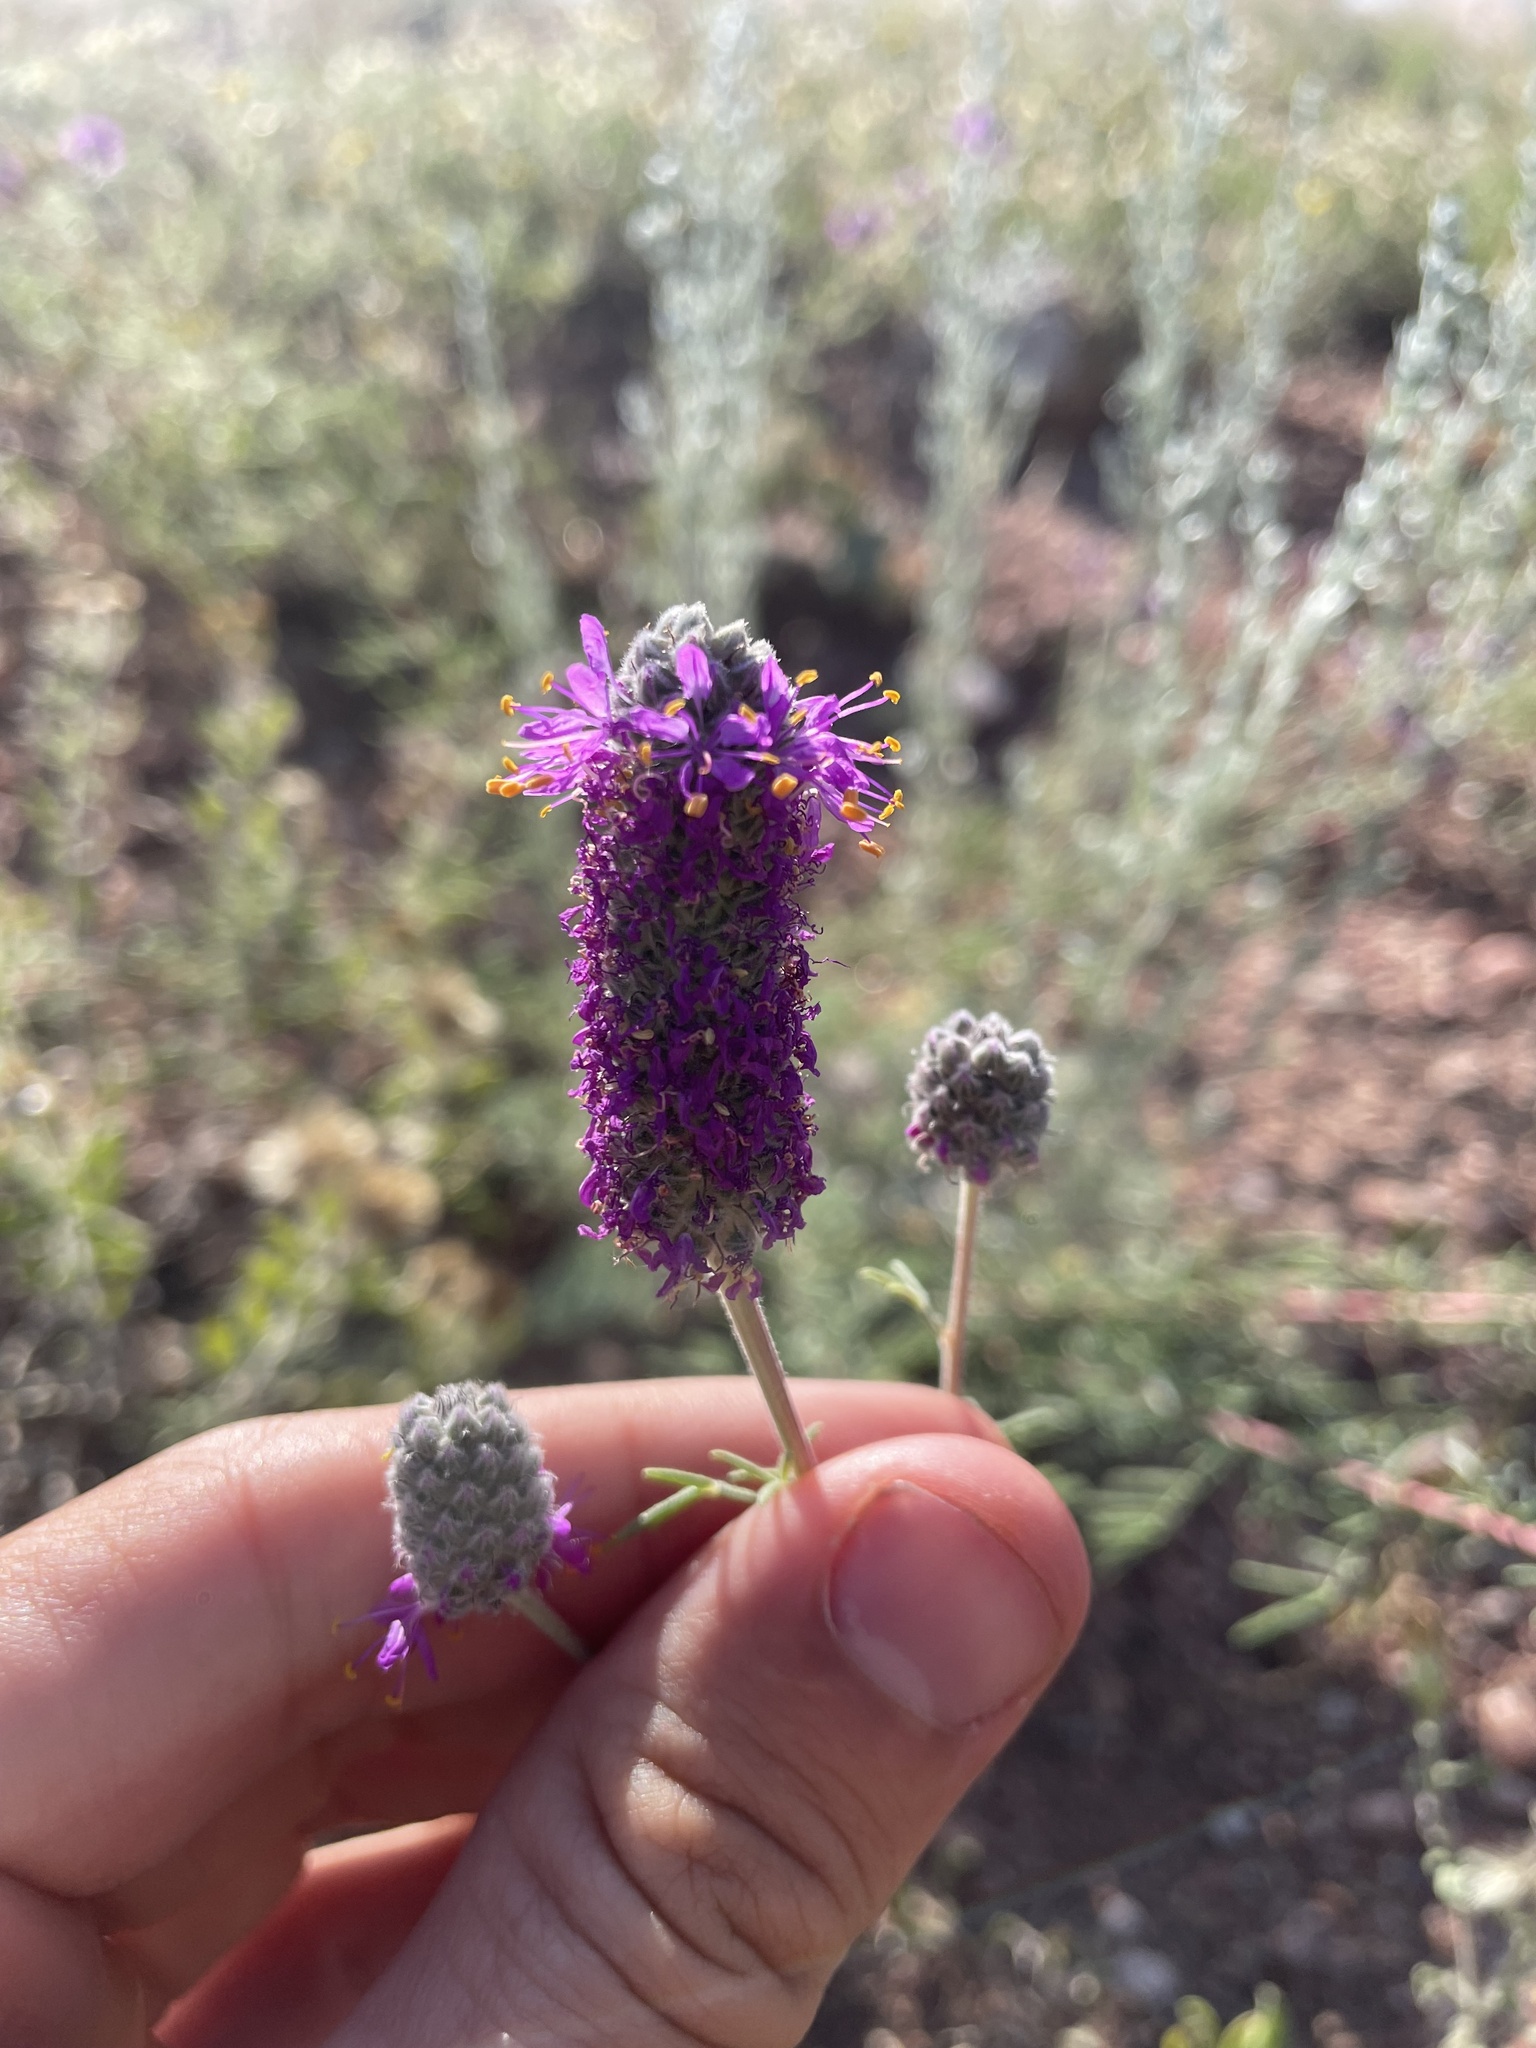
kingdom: Plantae
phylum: Tracheophyta
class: Magnoliopsida
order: Fabales
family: Fabaceae
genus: Dalea
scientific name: Dalea purpurea
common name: Purple prairie-clover
